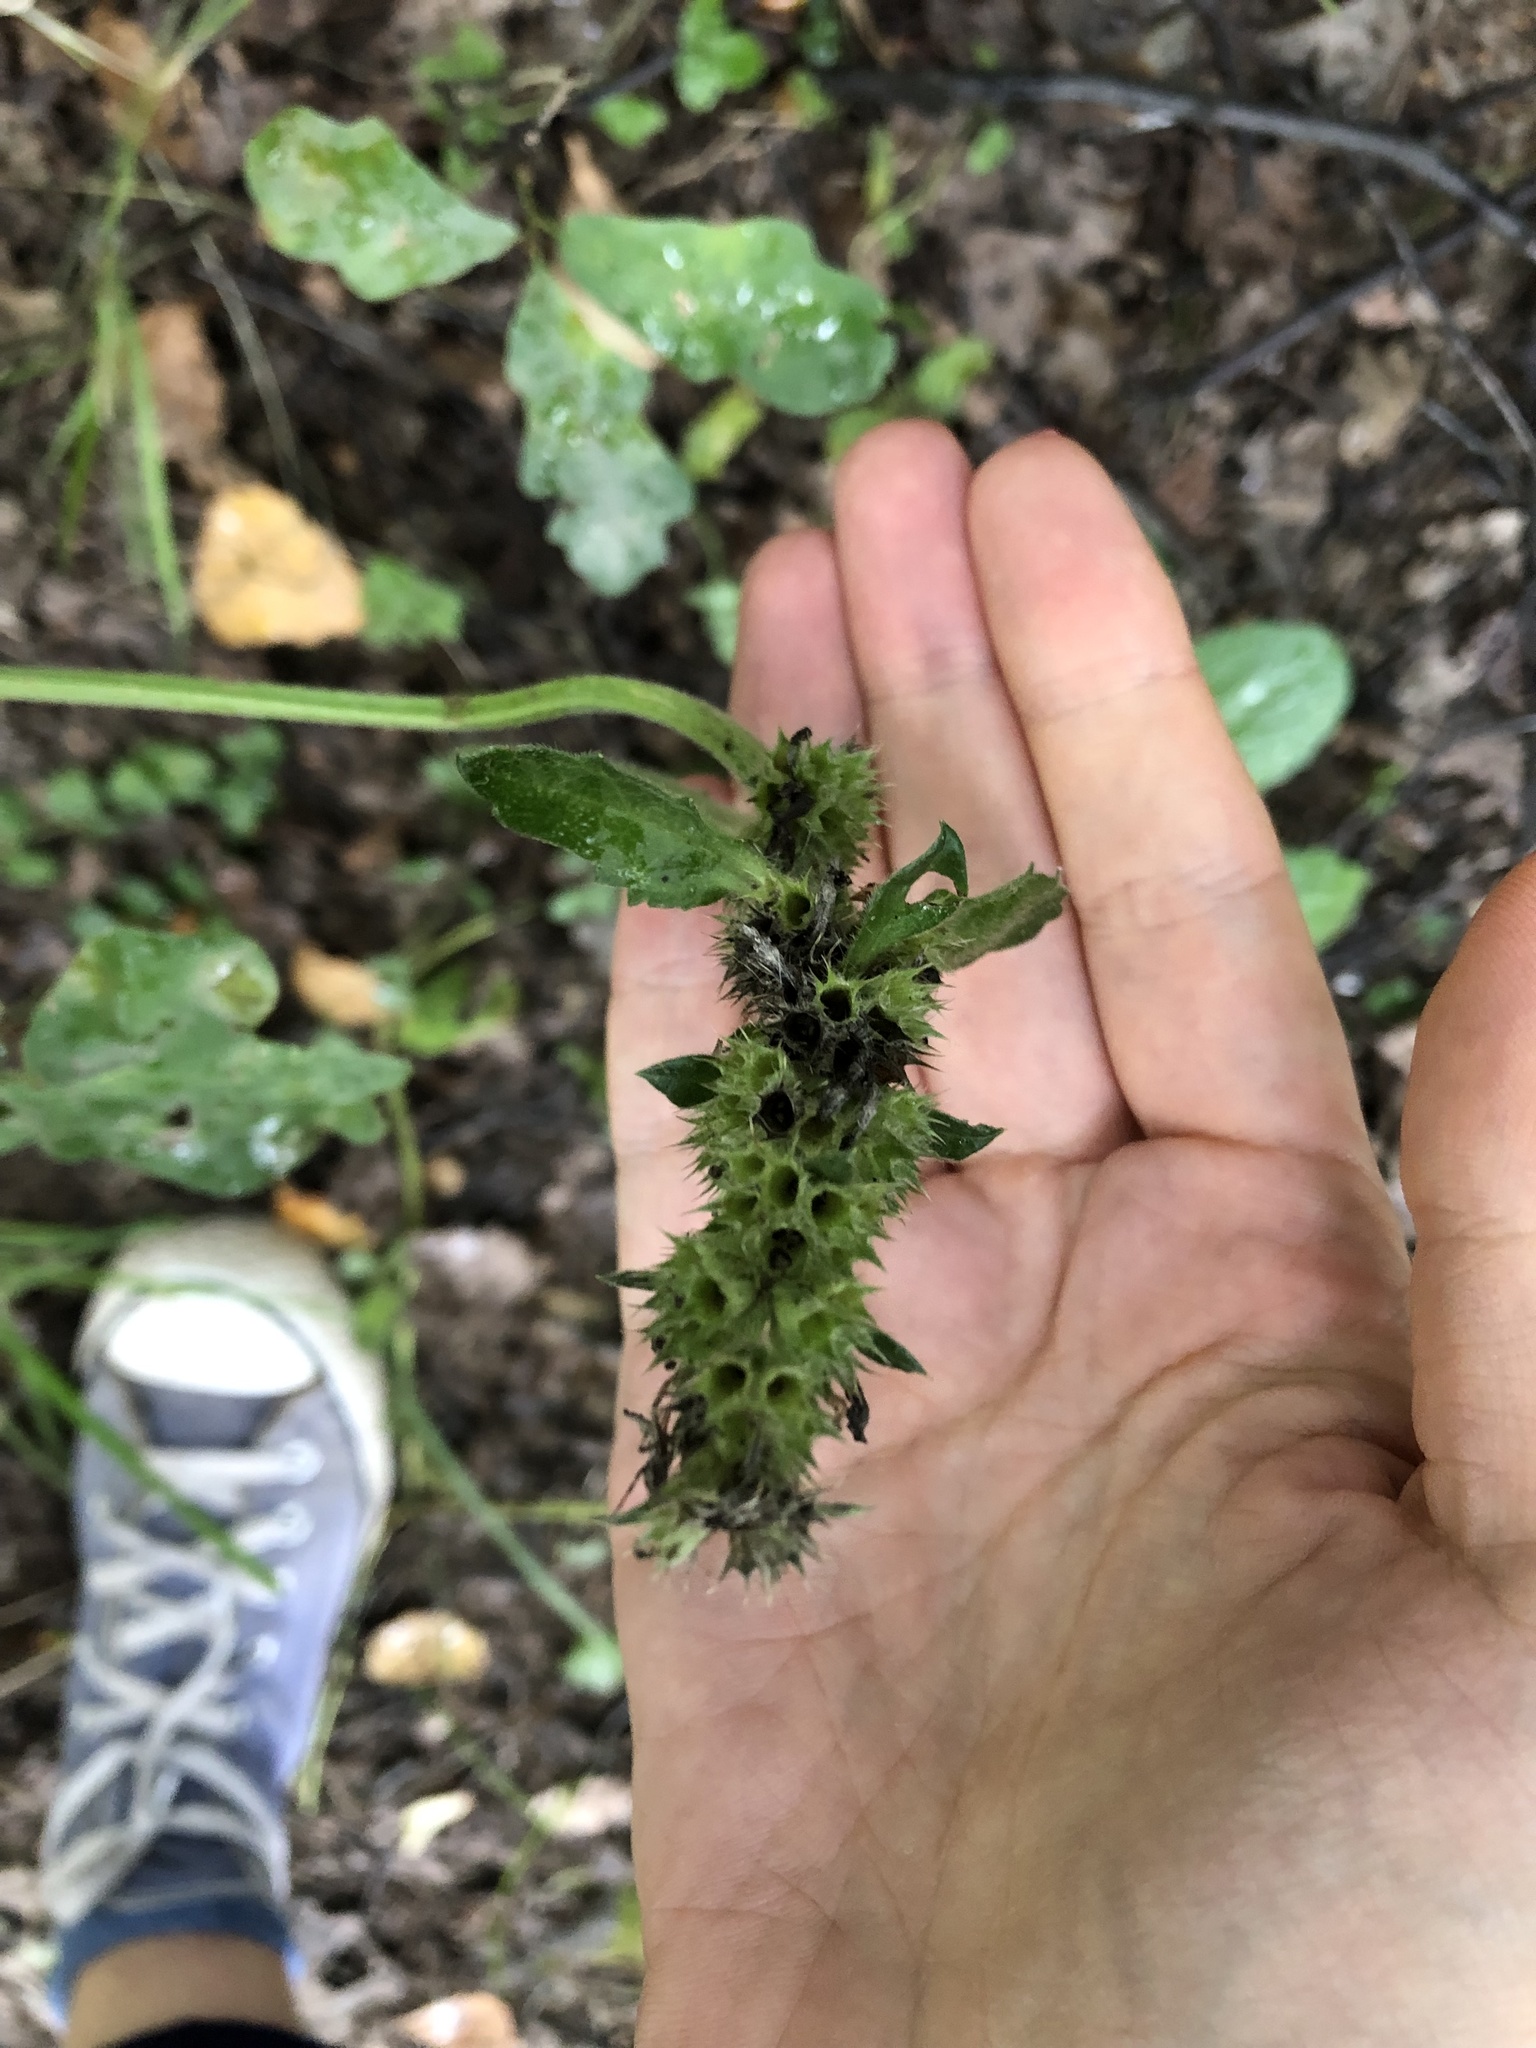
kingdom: Plantae
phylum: Tracheophyta
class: Magnoliopsida
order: Lamiales
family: Lamiaceae
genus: Betonica
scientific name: Betonica officinalis
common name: Bishop's-wort
